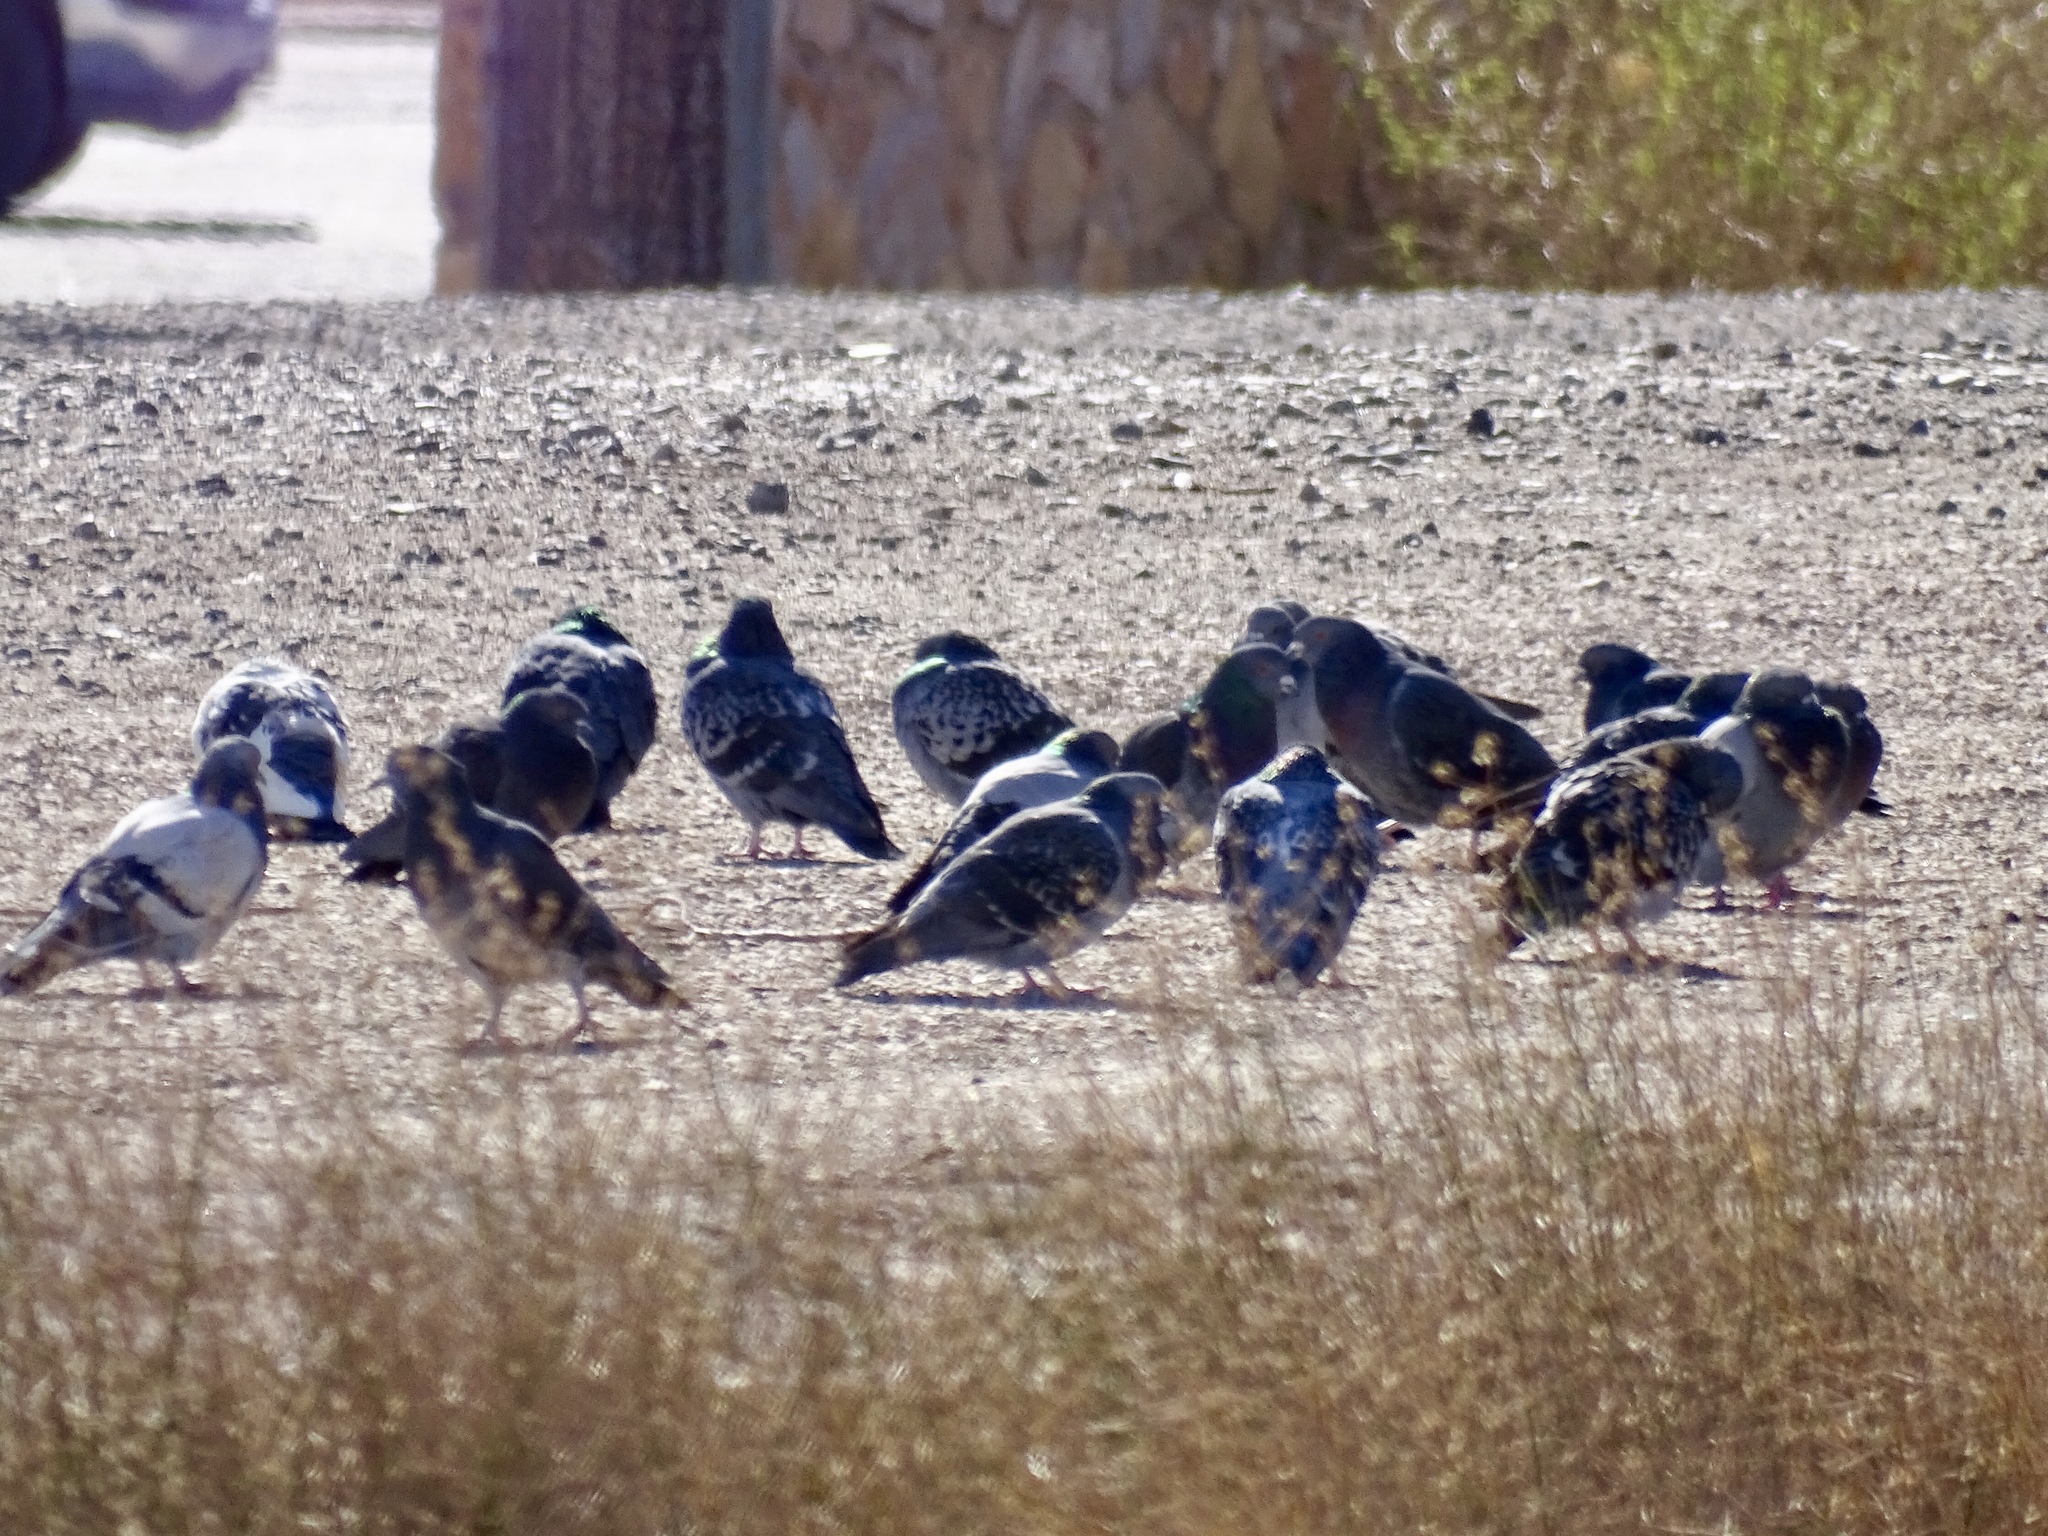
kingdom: Animalia
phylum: Chordata
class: Aves
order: Columbiformes
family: Columbidae
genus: Columba
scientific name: Columba livia
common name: Rock pigeon
